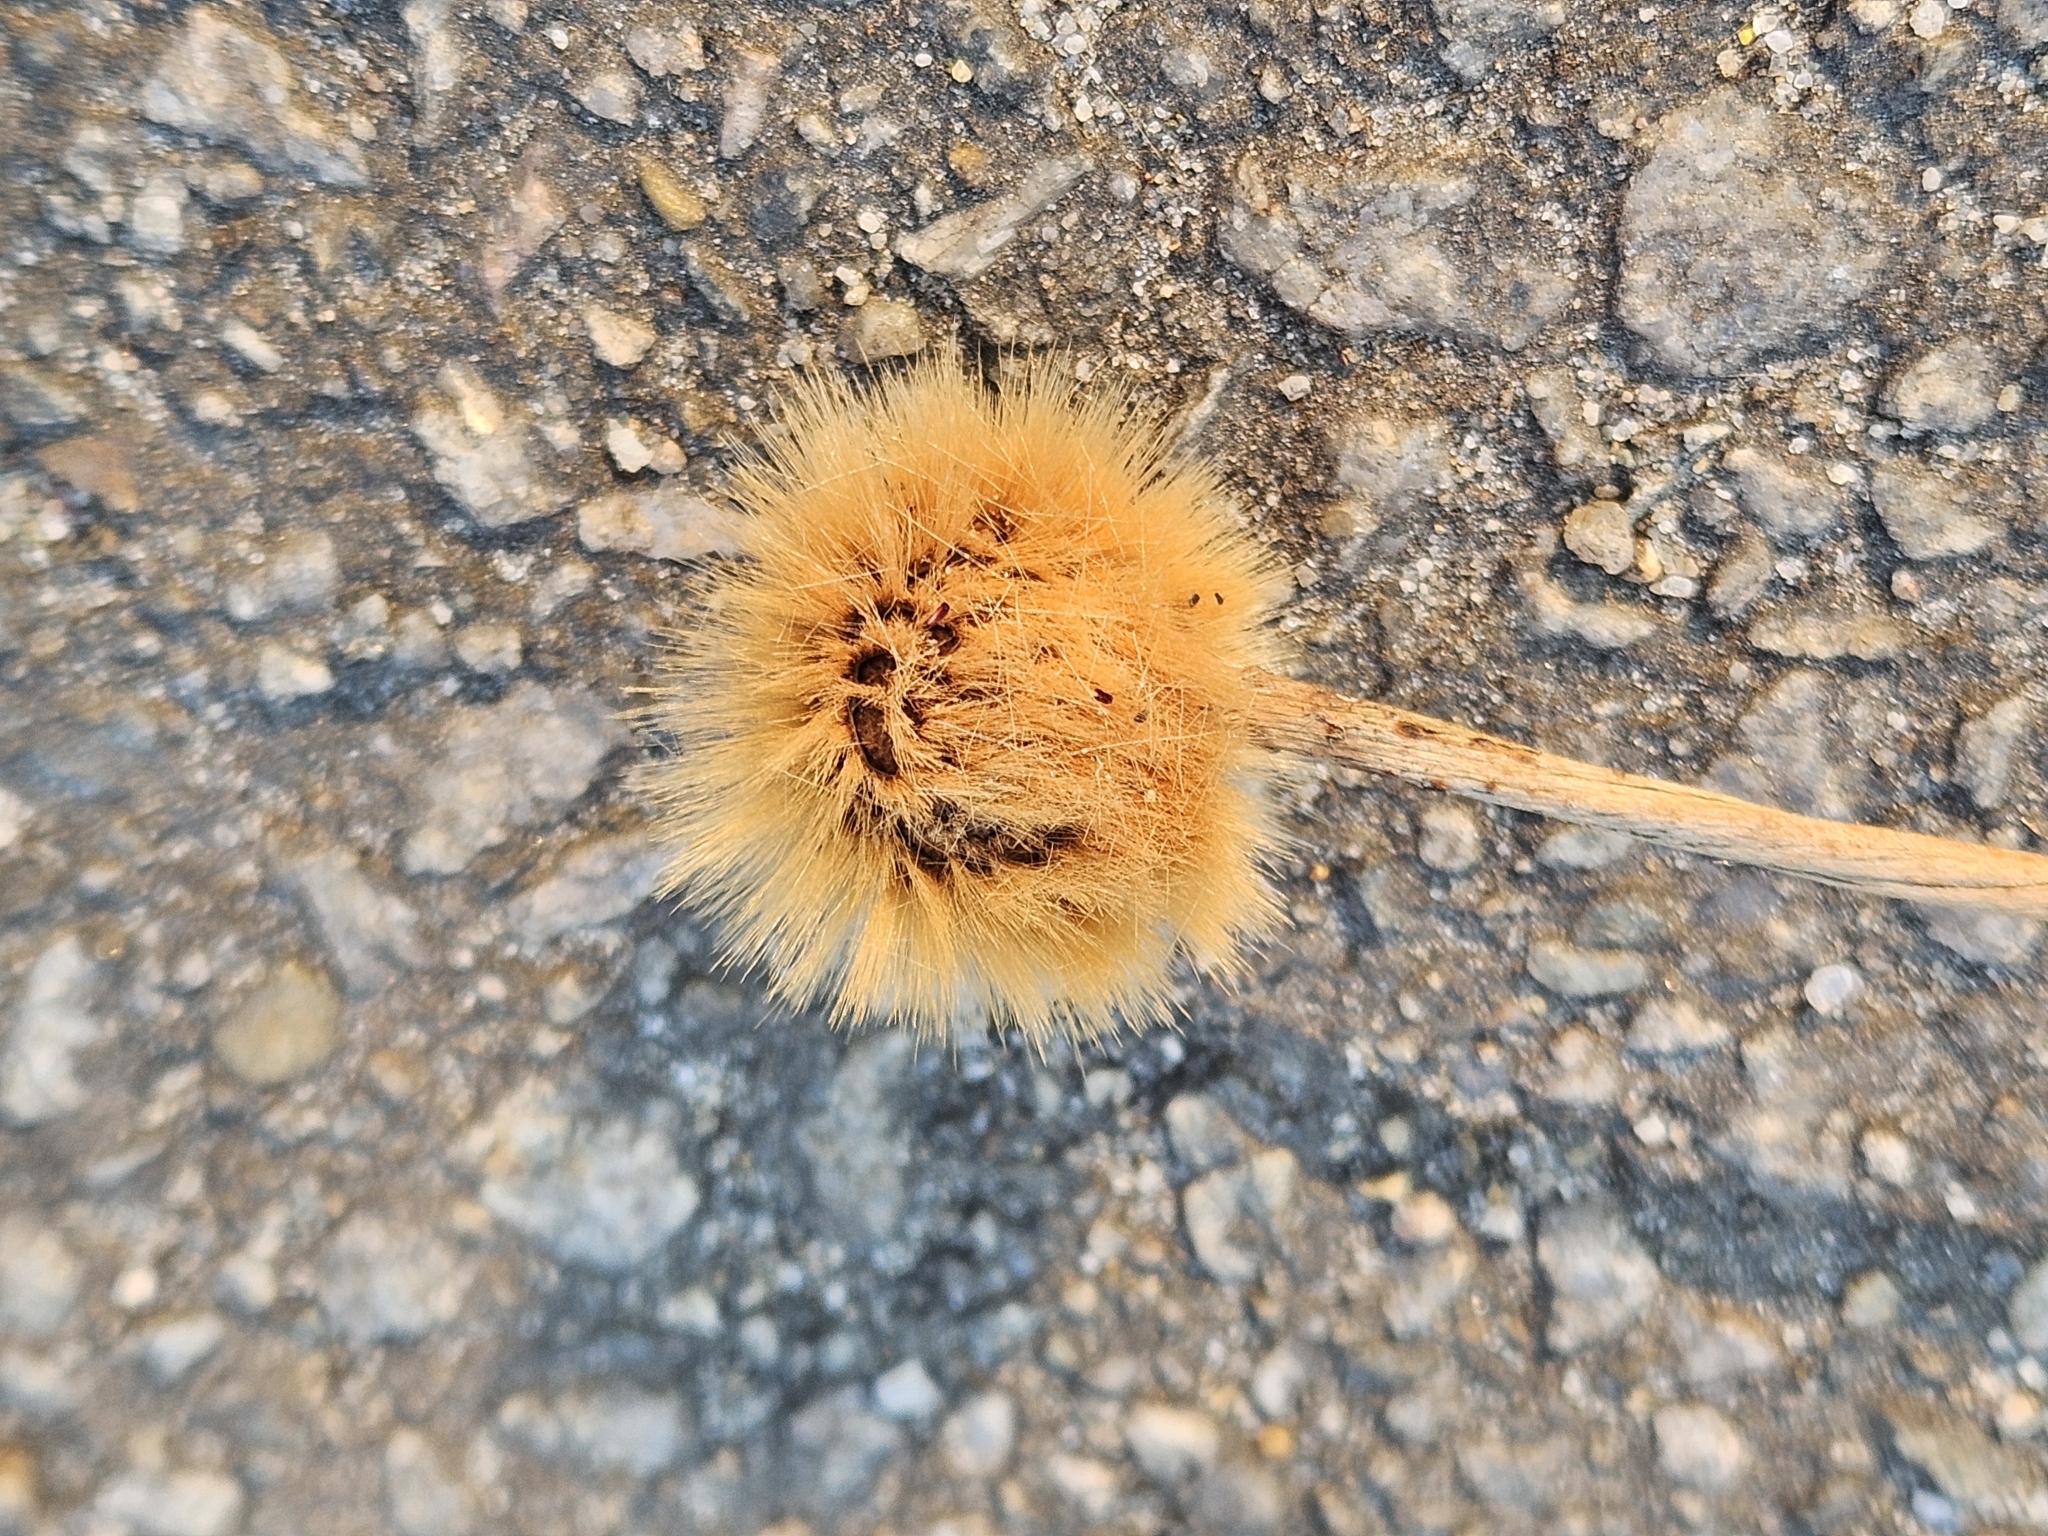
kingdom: Plantae
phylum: Tracheophyta
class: Magnoliopsida
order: Proteales
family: Platanaceae
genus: Platanus
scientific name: Platanus occidentalis
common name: American sycamore
